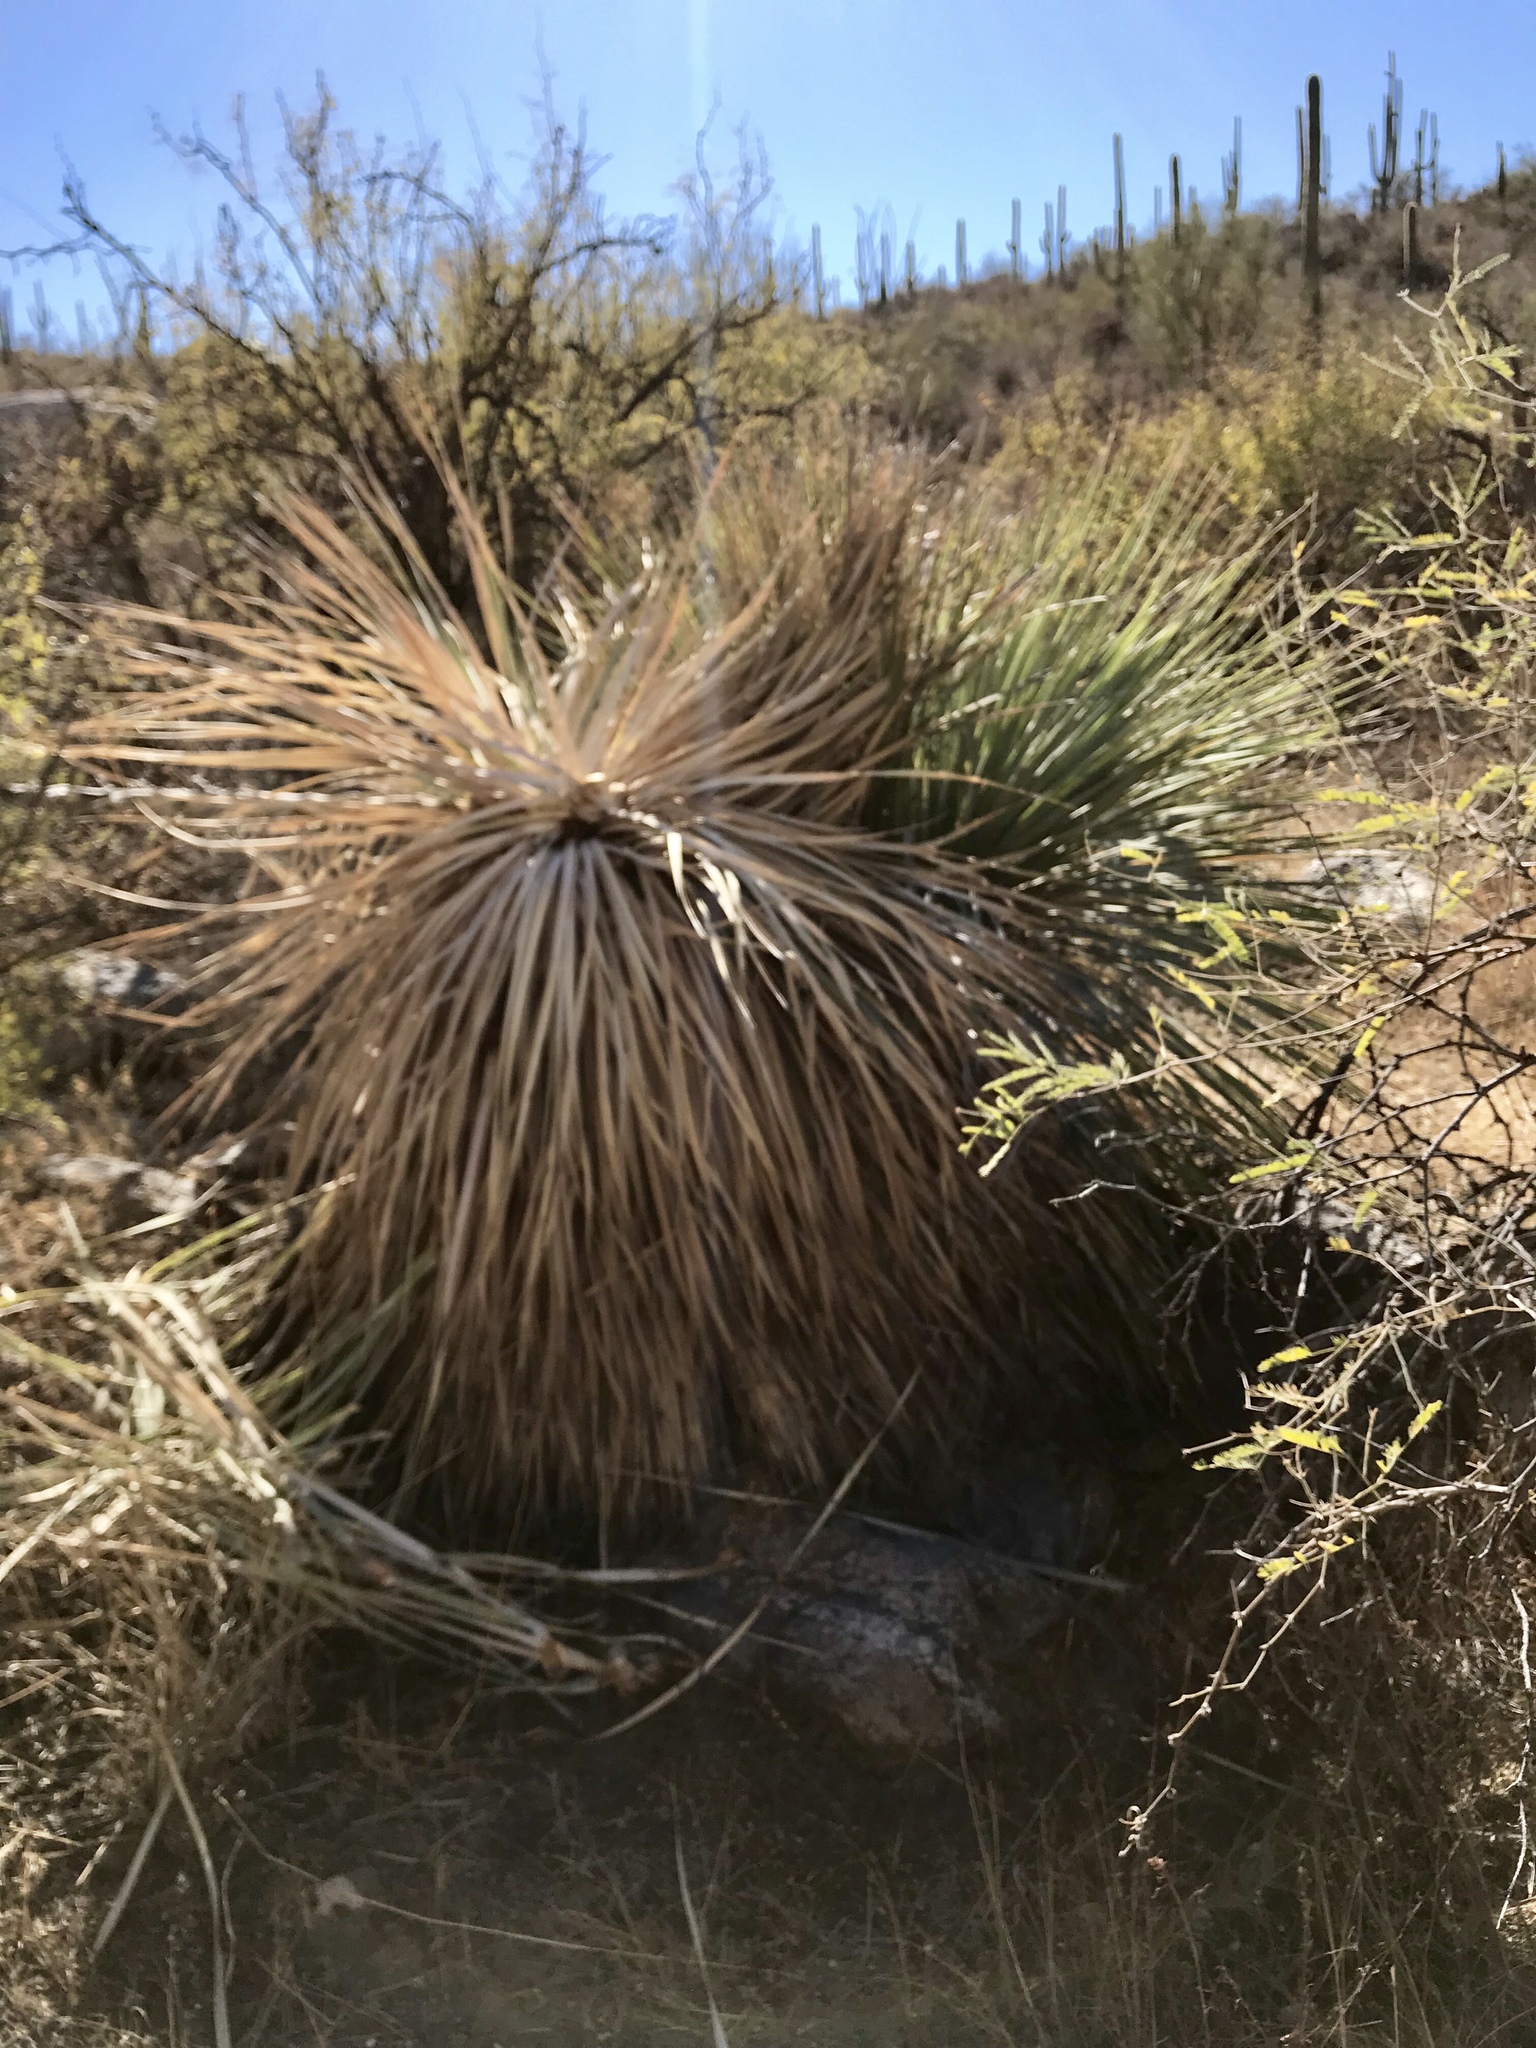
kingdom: Plantae
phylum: Tracheophyta
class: Liliopsida
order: Asparagales
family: Asparagaceae
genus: Dasylirion
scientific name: Dasylirion wheeleri
